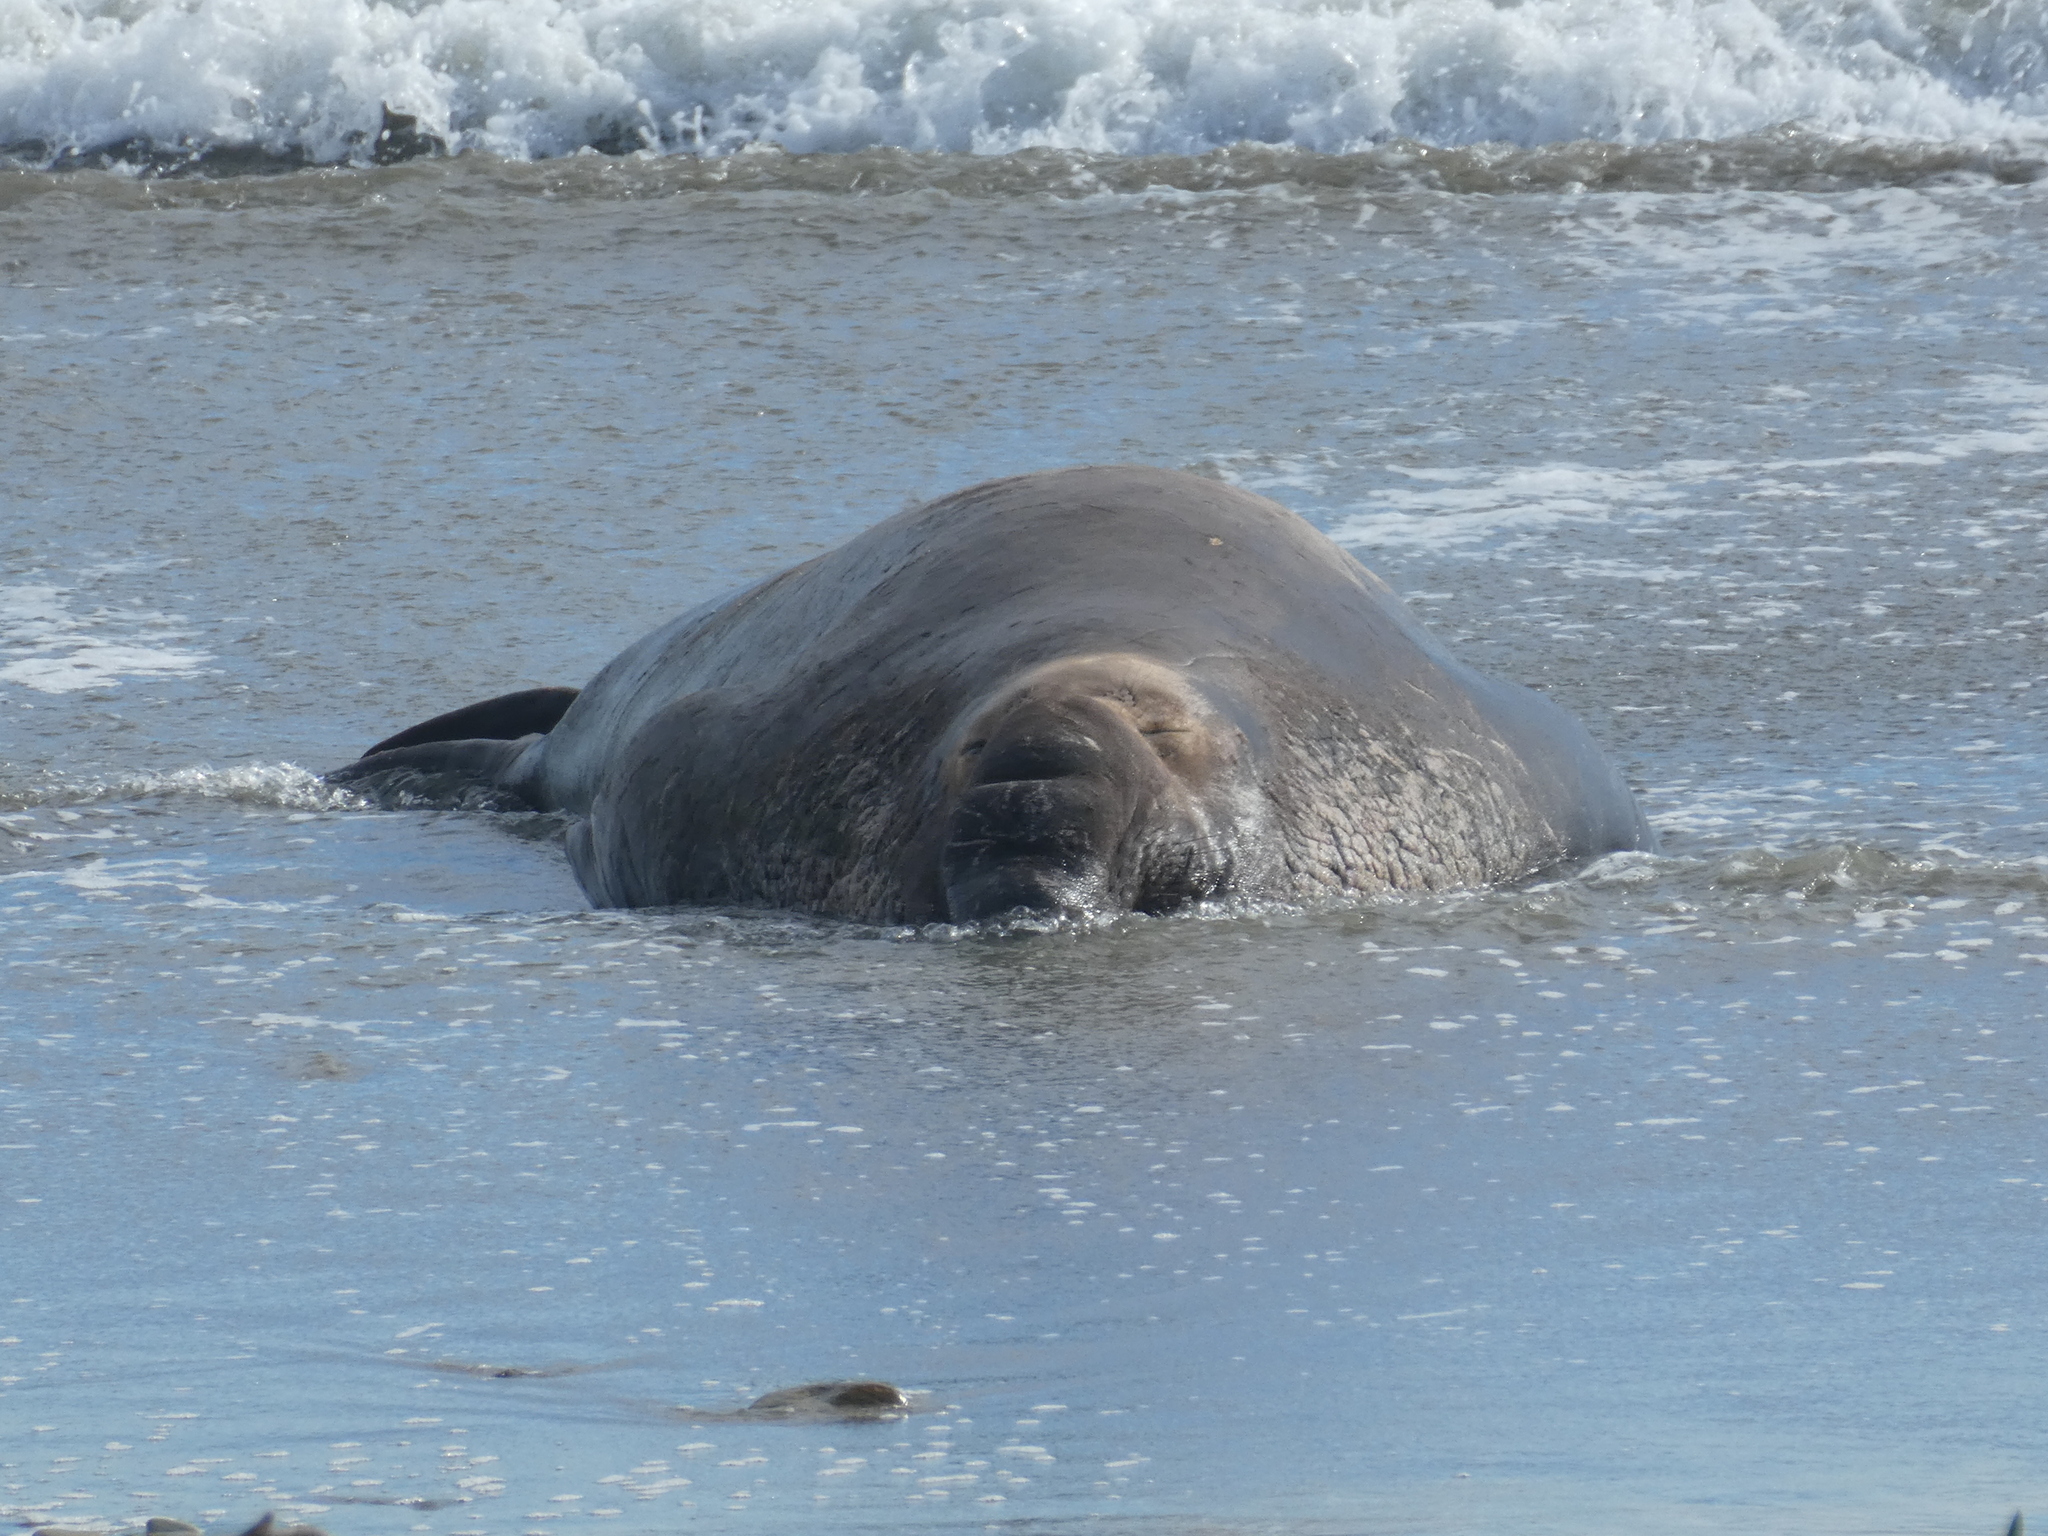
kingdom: Animalia
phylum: Chordata
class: Mammalia
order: Carnivora
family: Phocidae
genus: Mirounga
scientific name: Mirounga angustirostris
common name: Northern elephant seal
